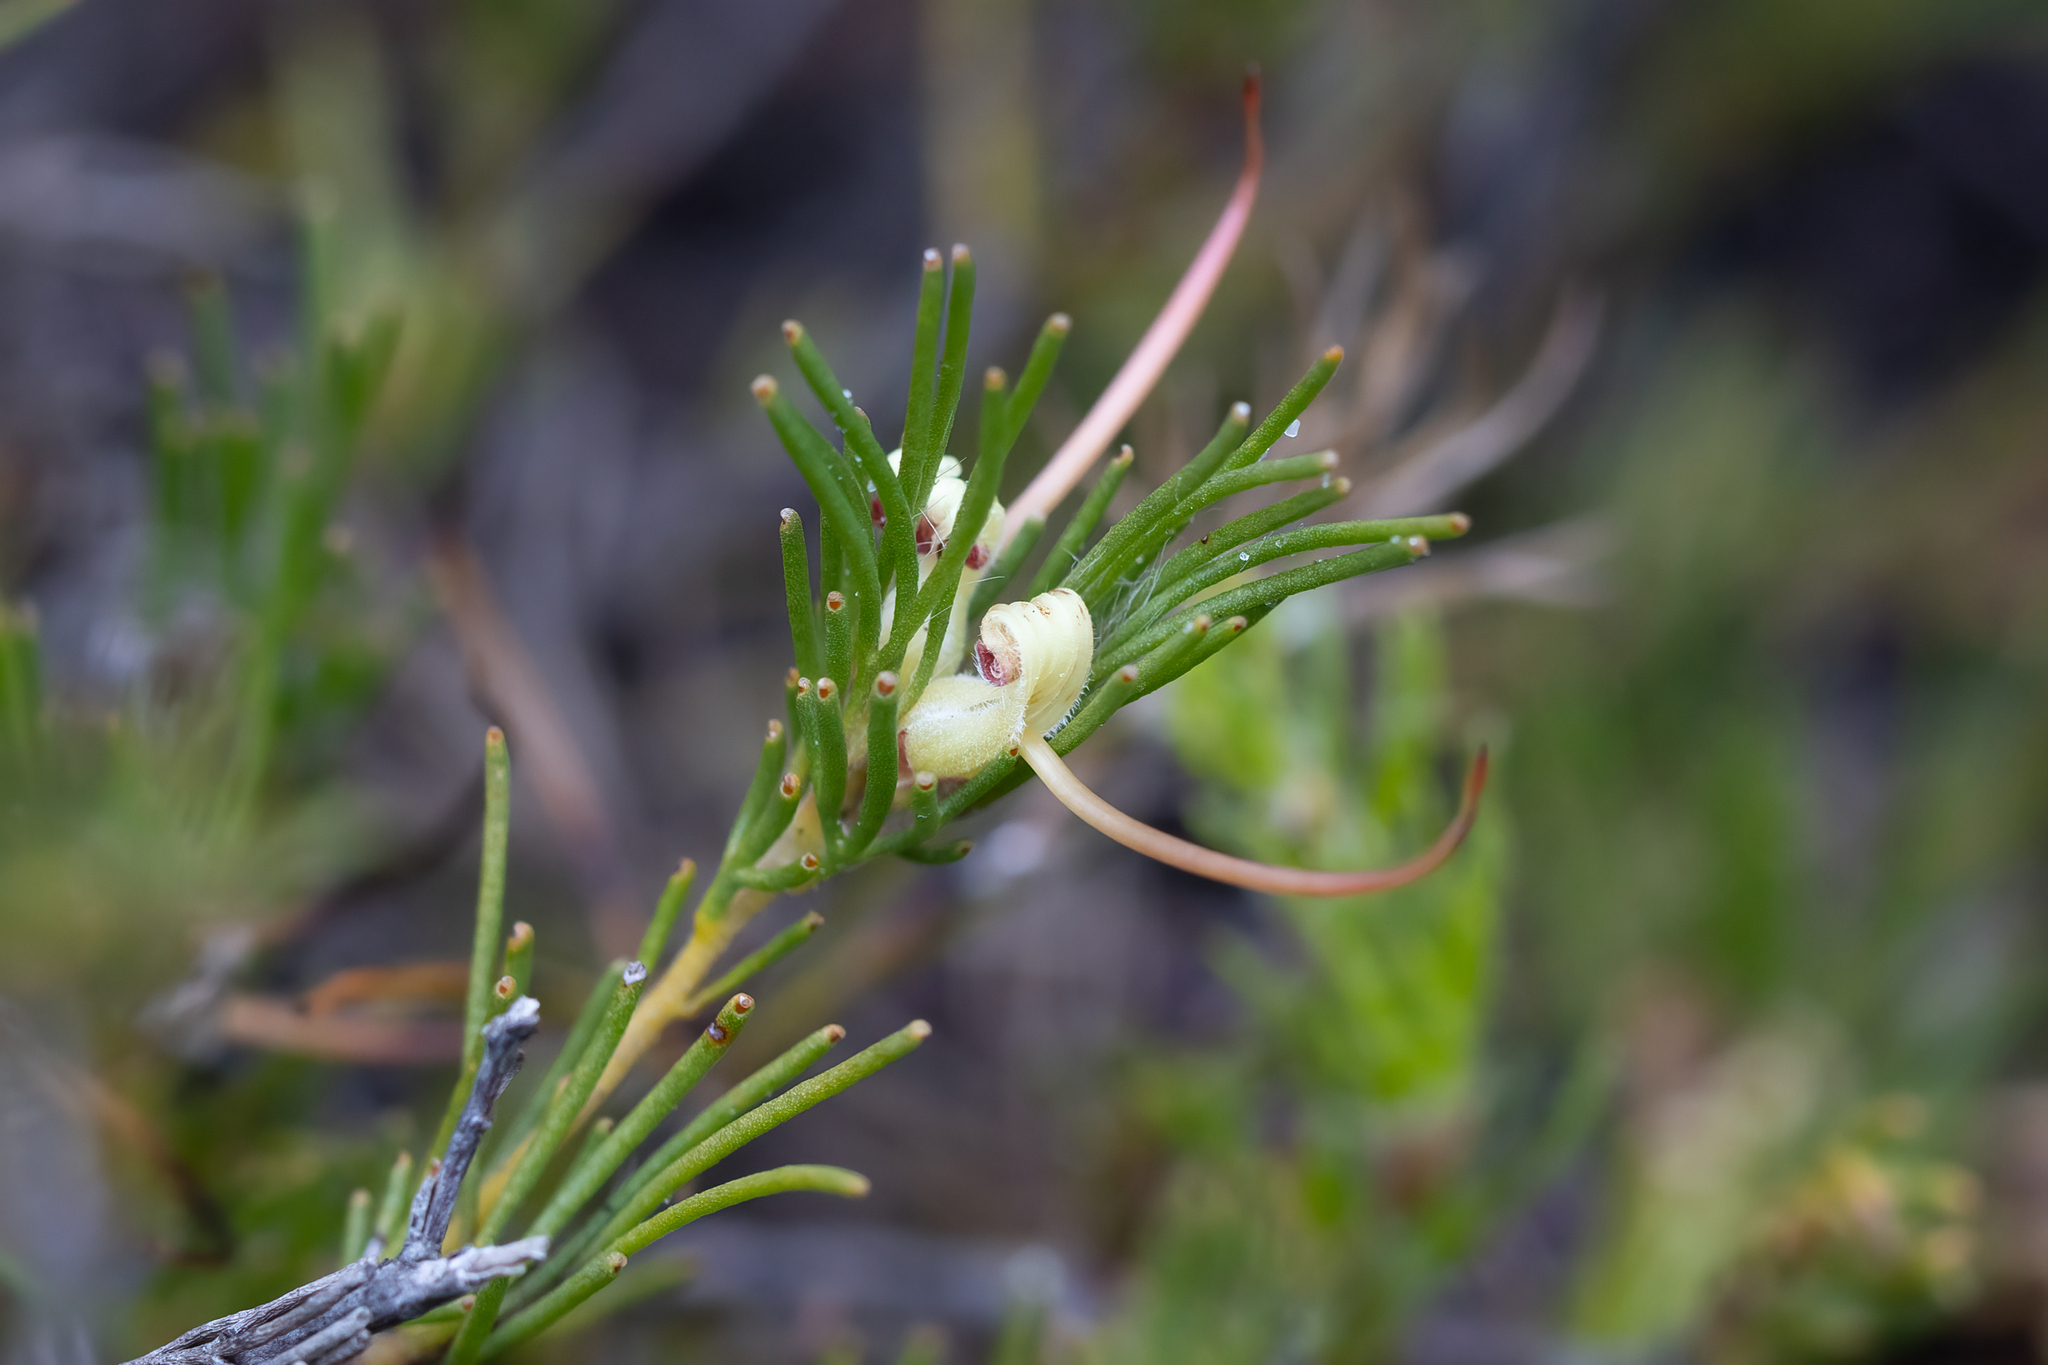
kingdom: Plantae
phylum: Tracheophyta
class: Magnoliopsida
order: Proteales
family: Proteaceae
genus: Adenanthos
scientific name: Adenanthos apiculatus
